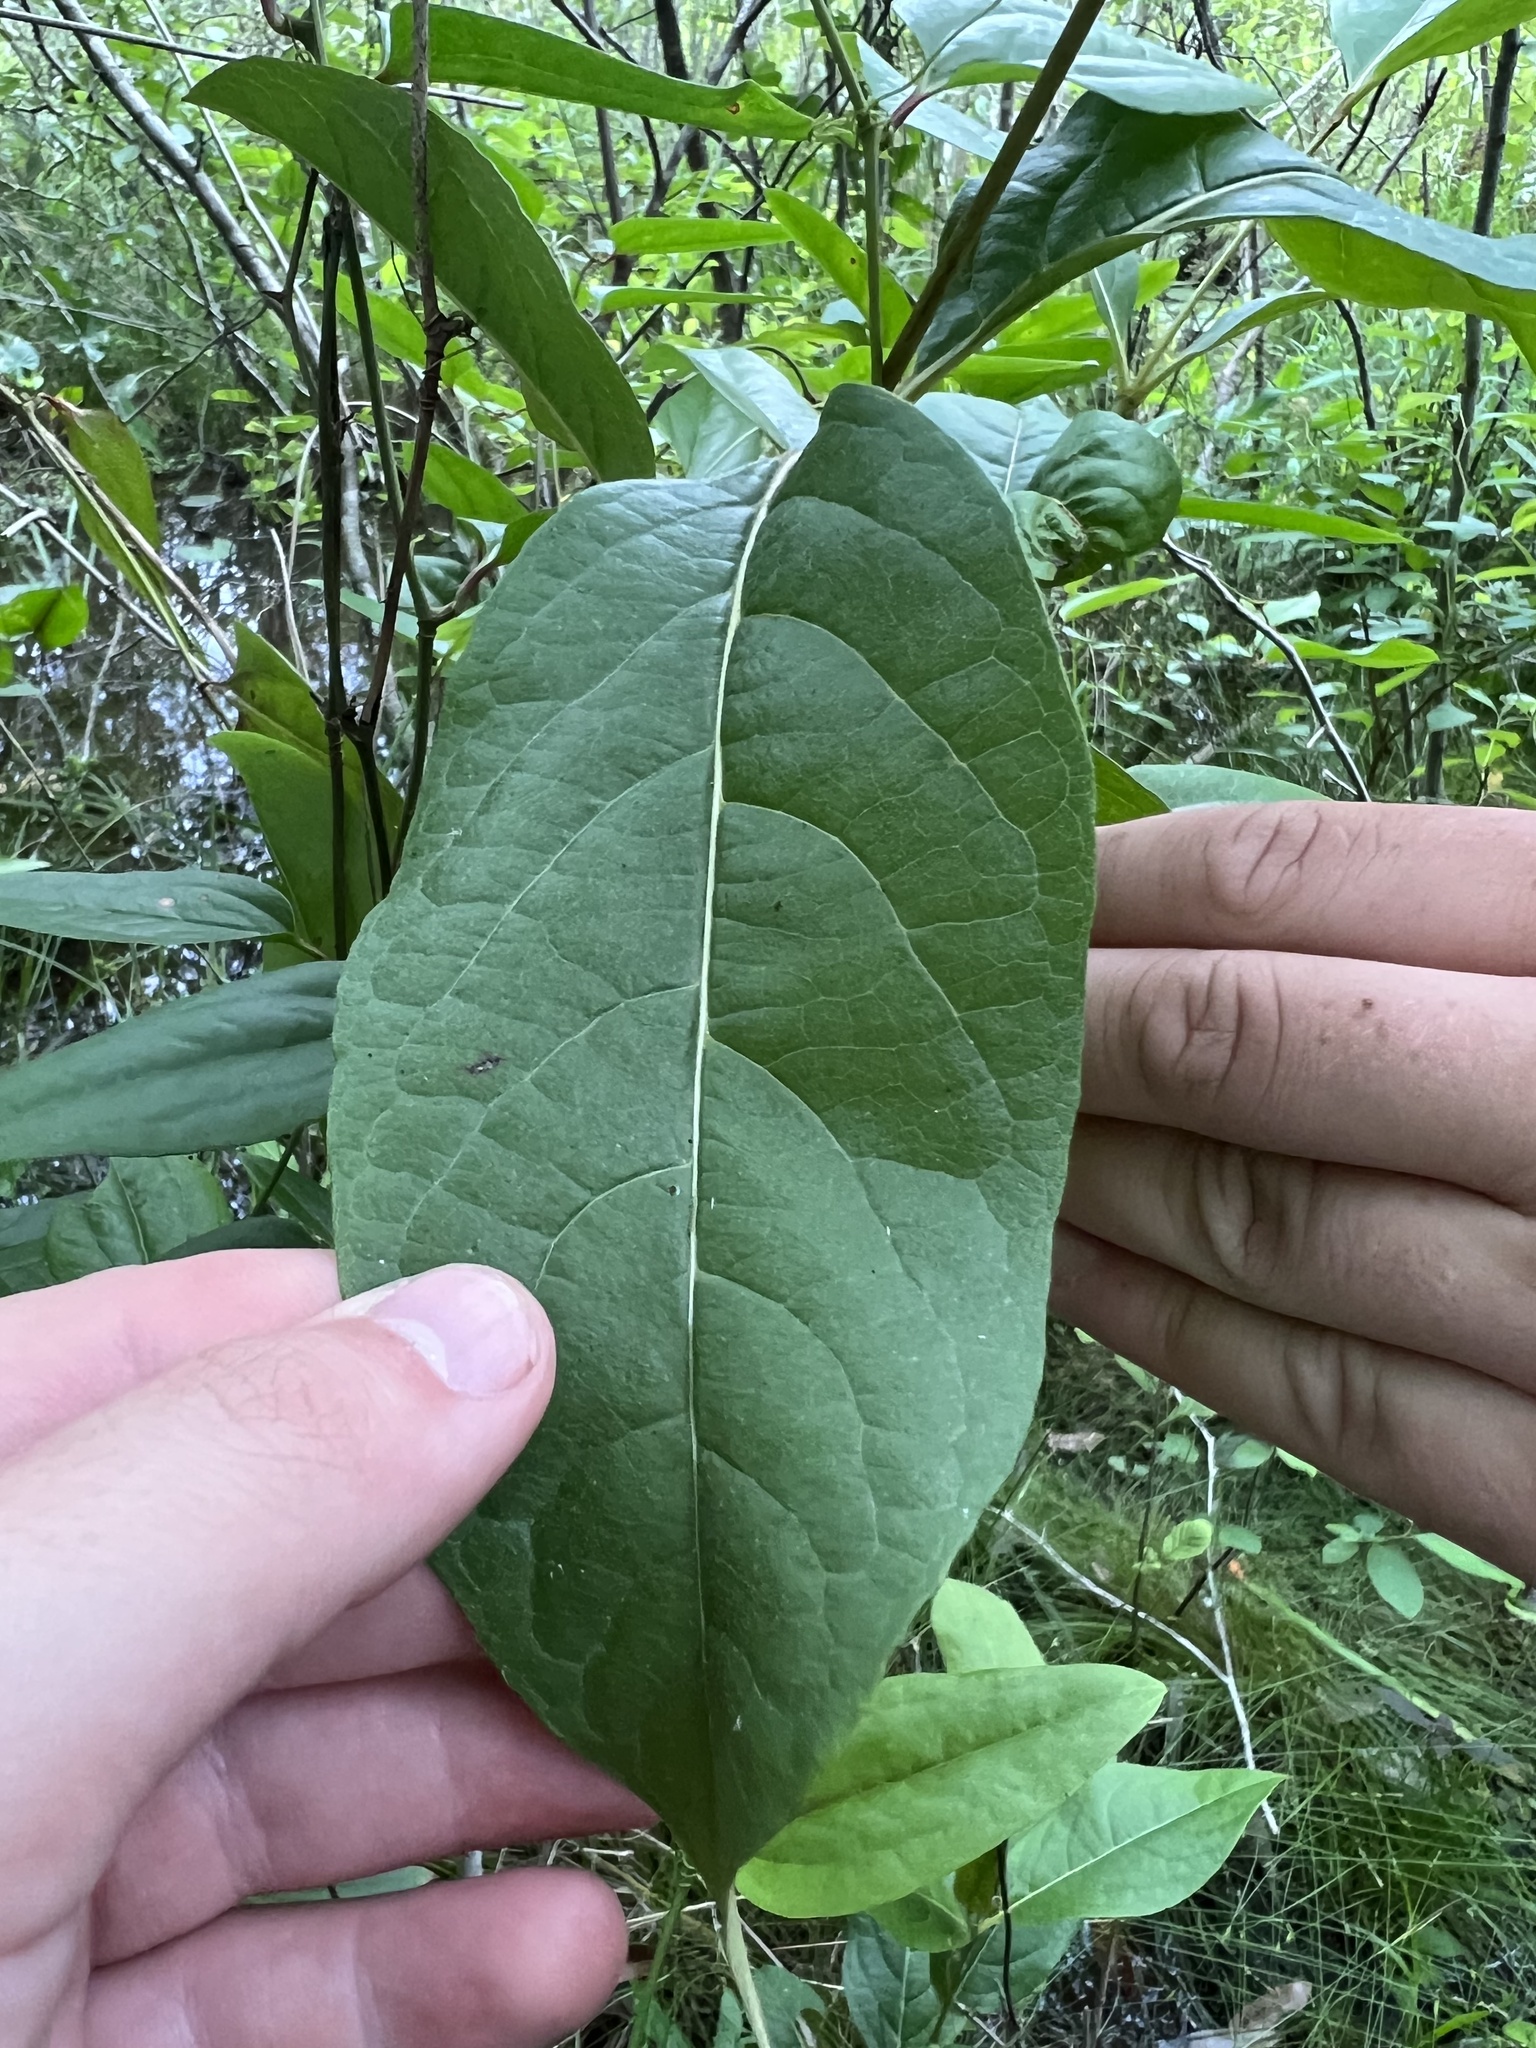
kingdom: Plantae
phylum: Tracheophyta
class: Magnoliopsida
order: Dipsacales
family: Viburnaceae
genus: Viburnum
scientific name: Viburnum nudum
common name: Possum haw
